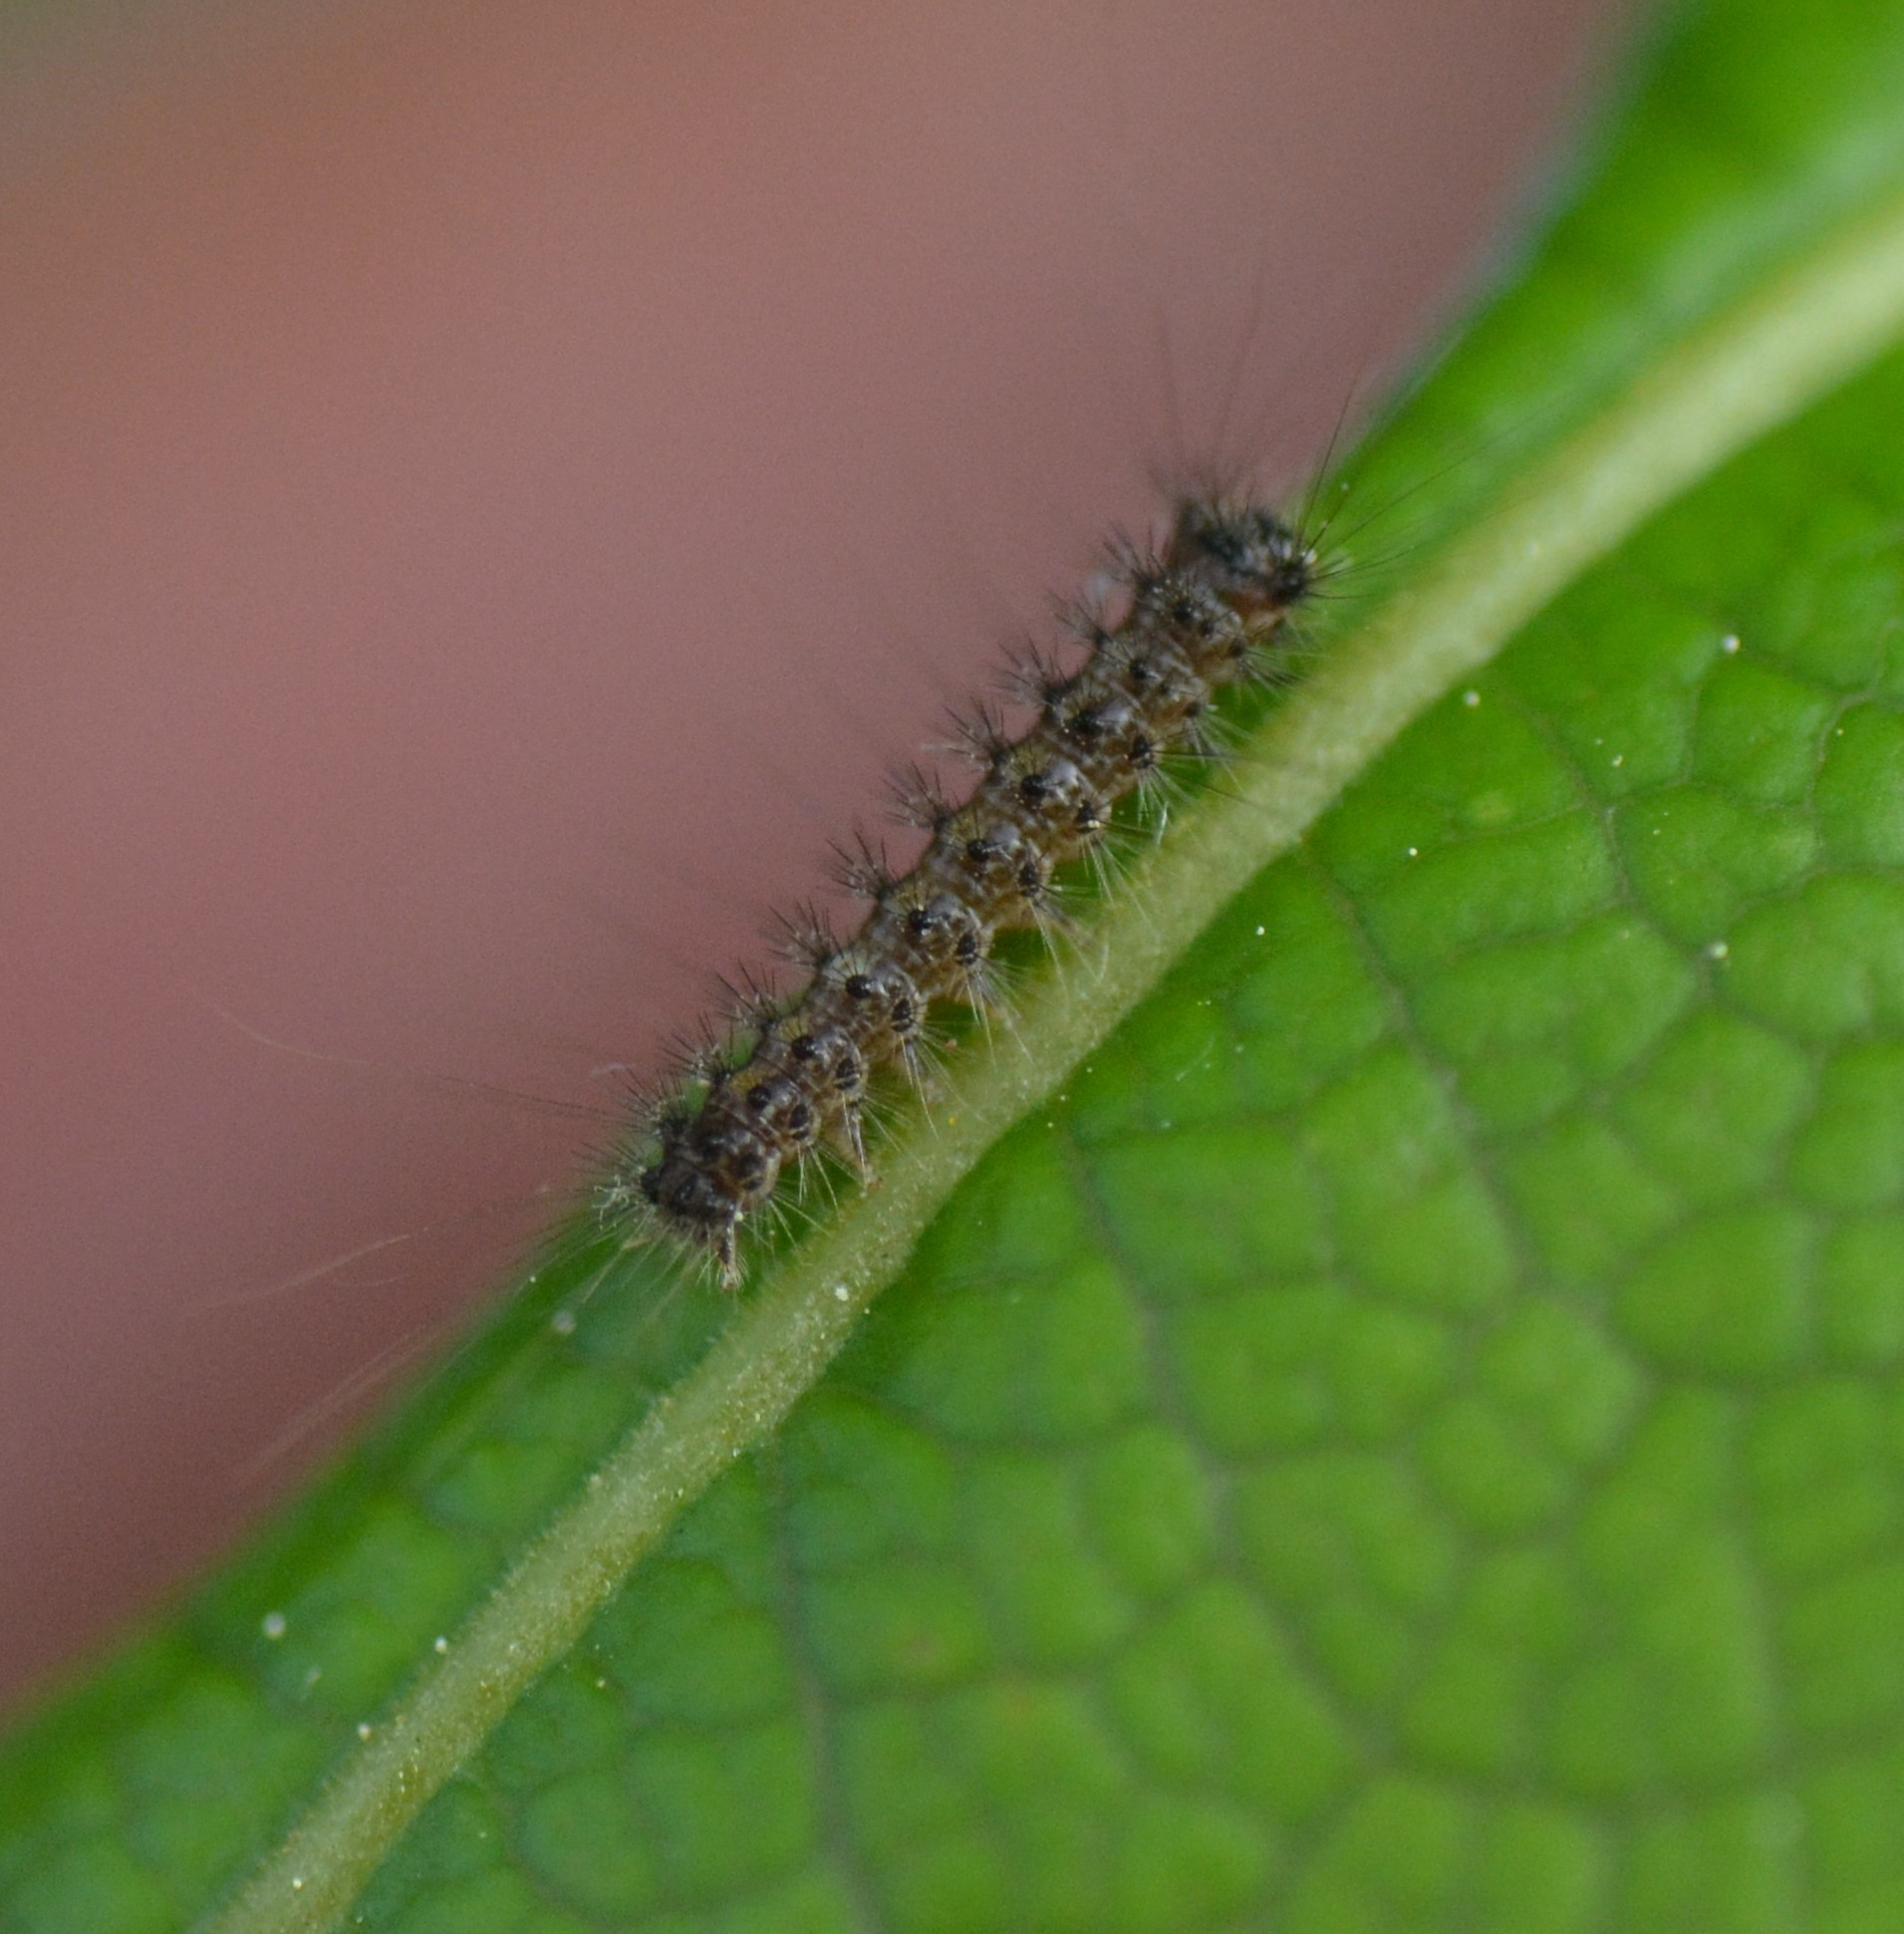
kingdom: Animalia
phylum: Arthropoda
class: Insecta
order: Lepidoptera
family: Erebidae
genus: Lymantria
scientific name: Lymantria dispar
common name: Gypsy moth
